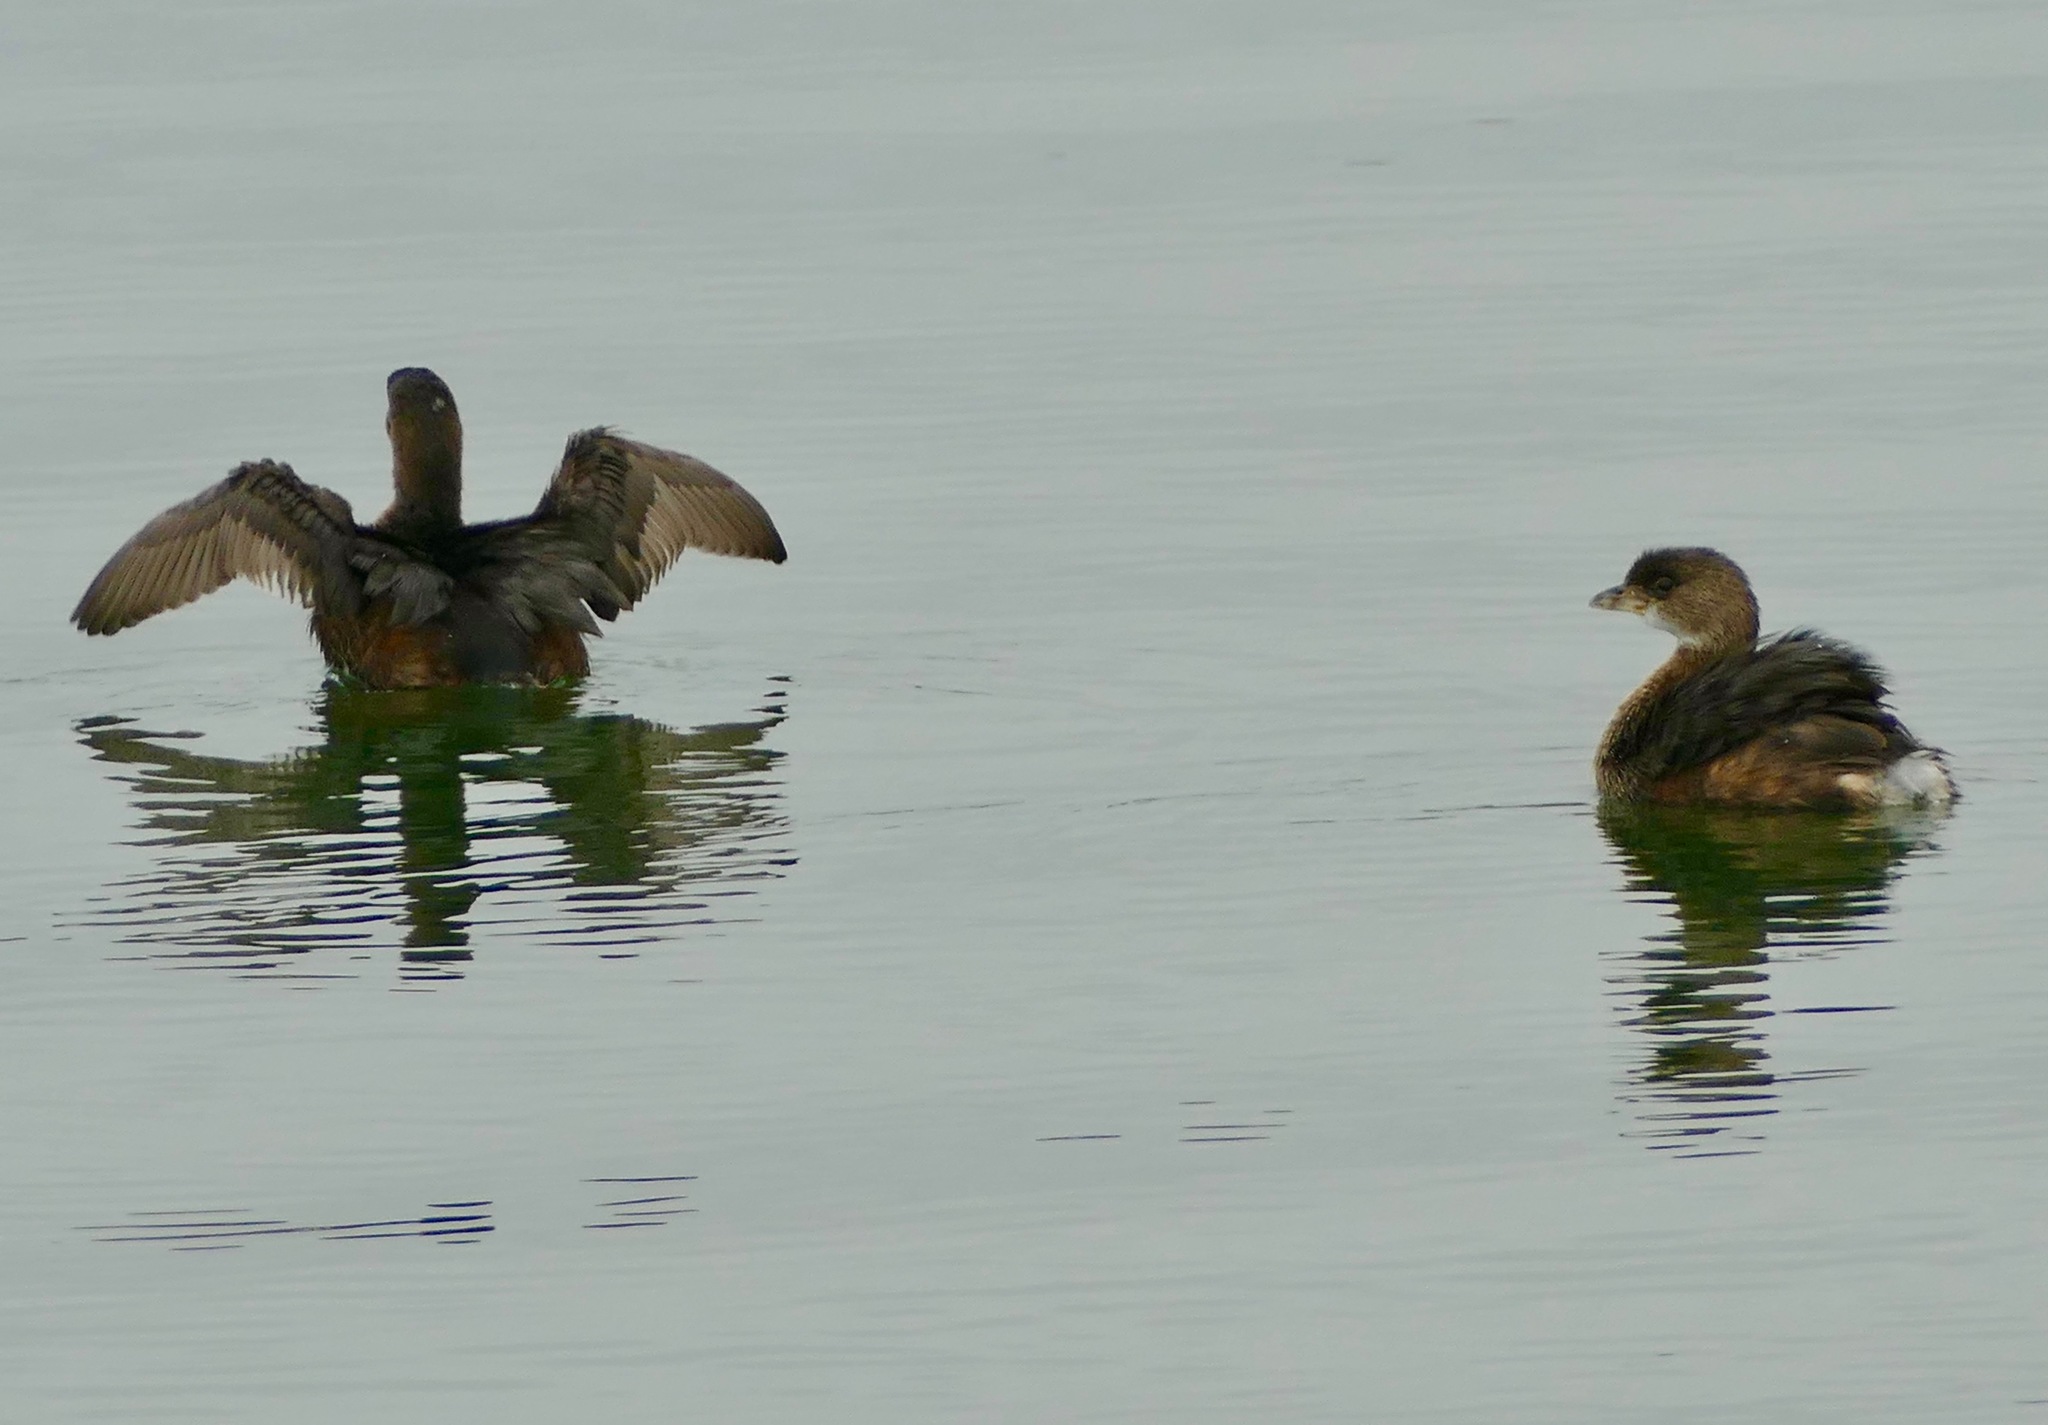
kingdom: Animalia
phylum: Chordata
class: Aves
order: Podicipediformes
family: Podicipedidae
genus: Podilymbus
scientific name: Podilymbus podiceps
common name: Pied-billed grebe
